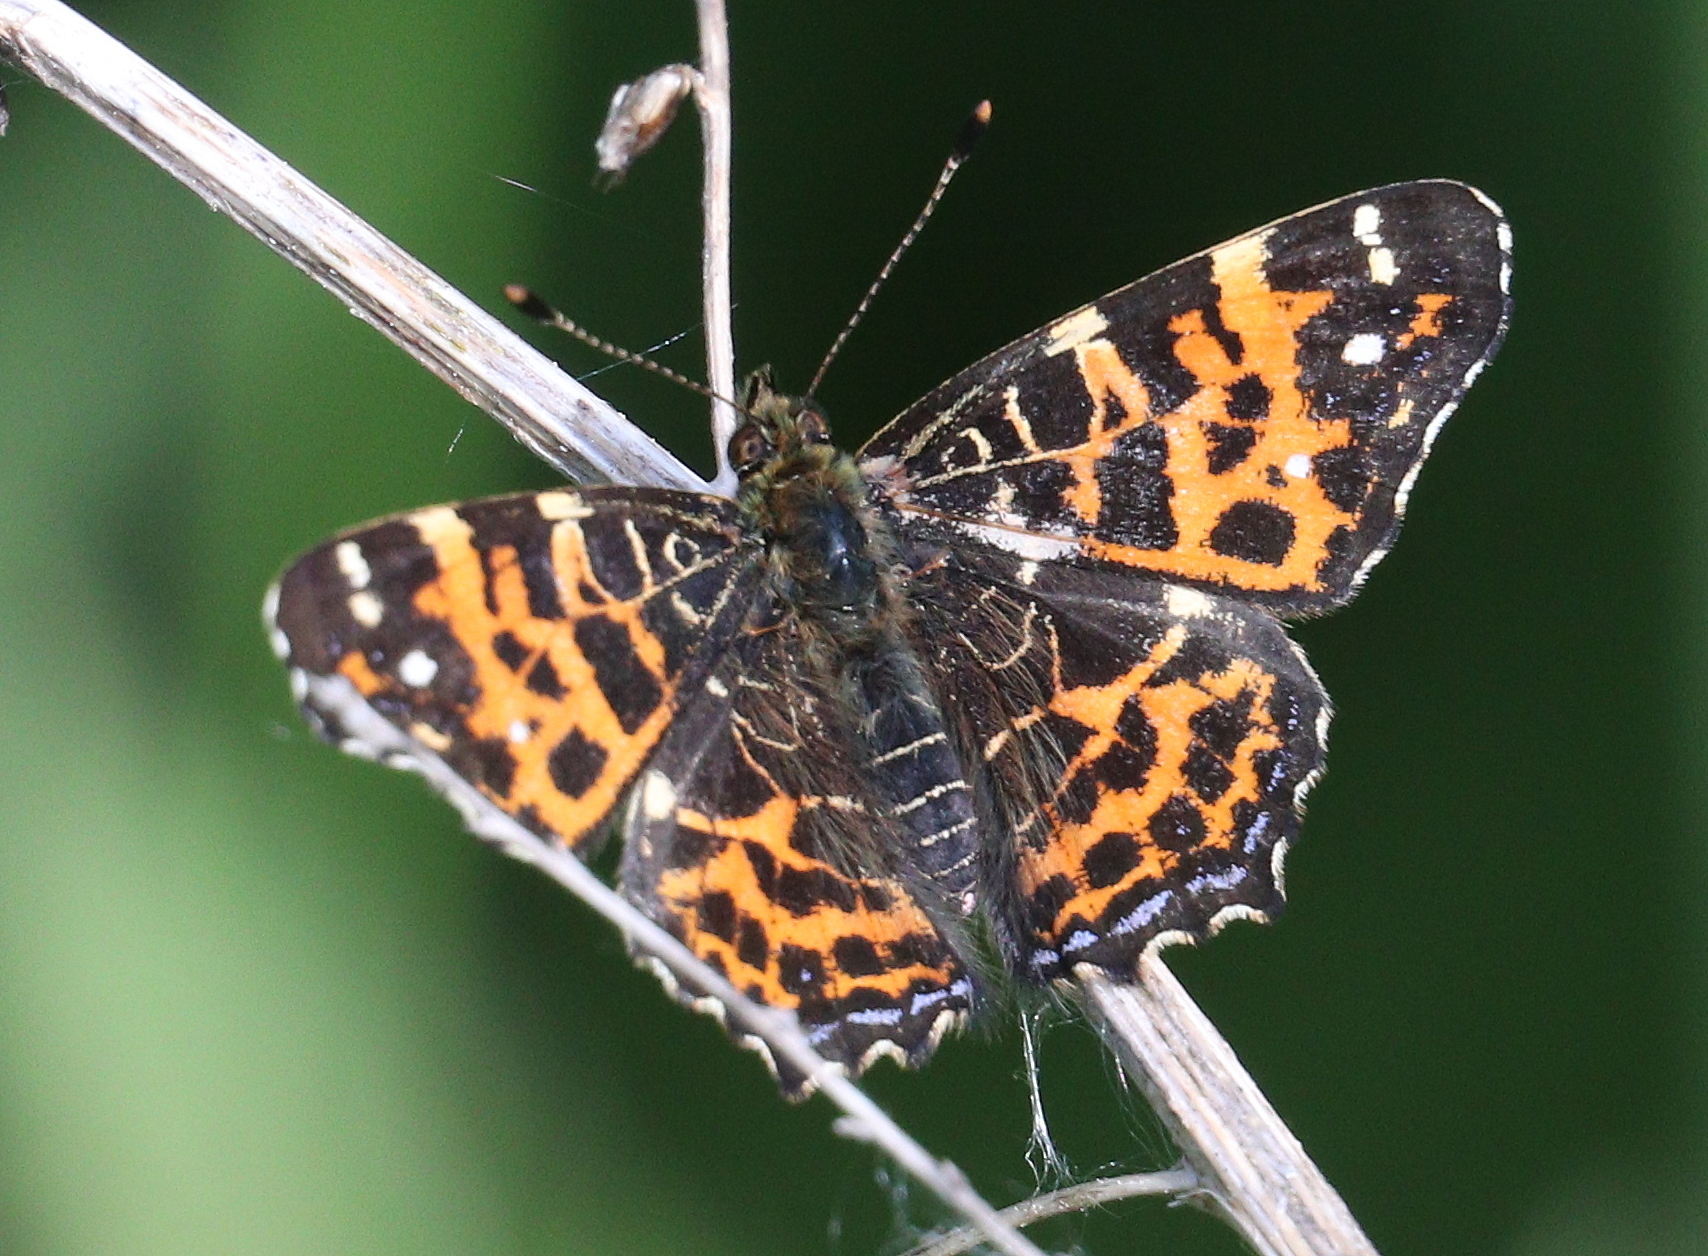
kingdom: Animalia
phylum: Arthropoda
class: Insecta
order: Lepidoptera
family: Nymphalidae
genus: Araschnia
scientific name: Araschnia levana
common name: Map butterfly
